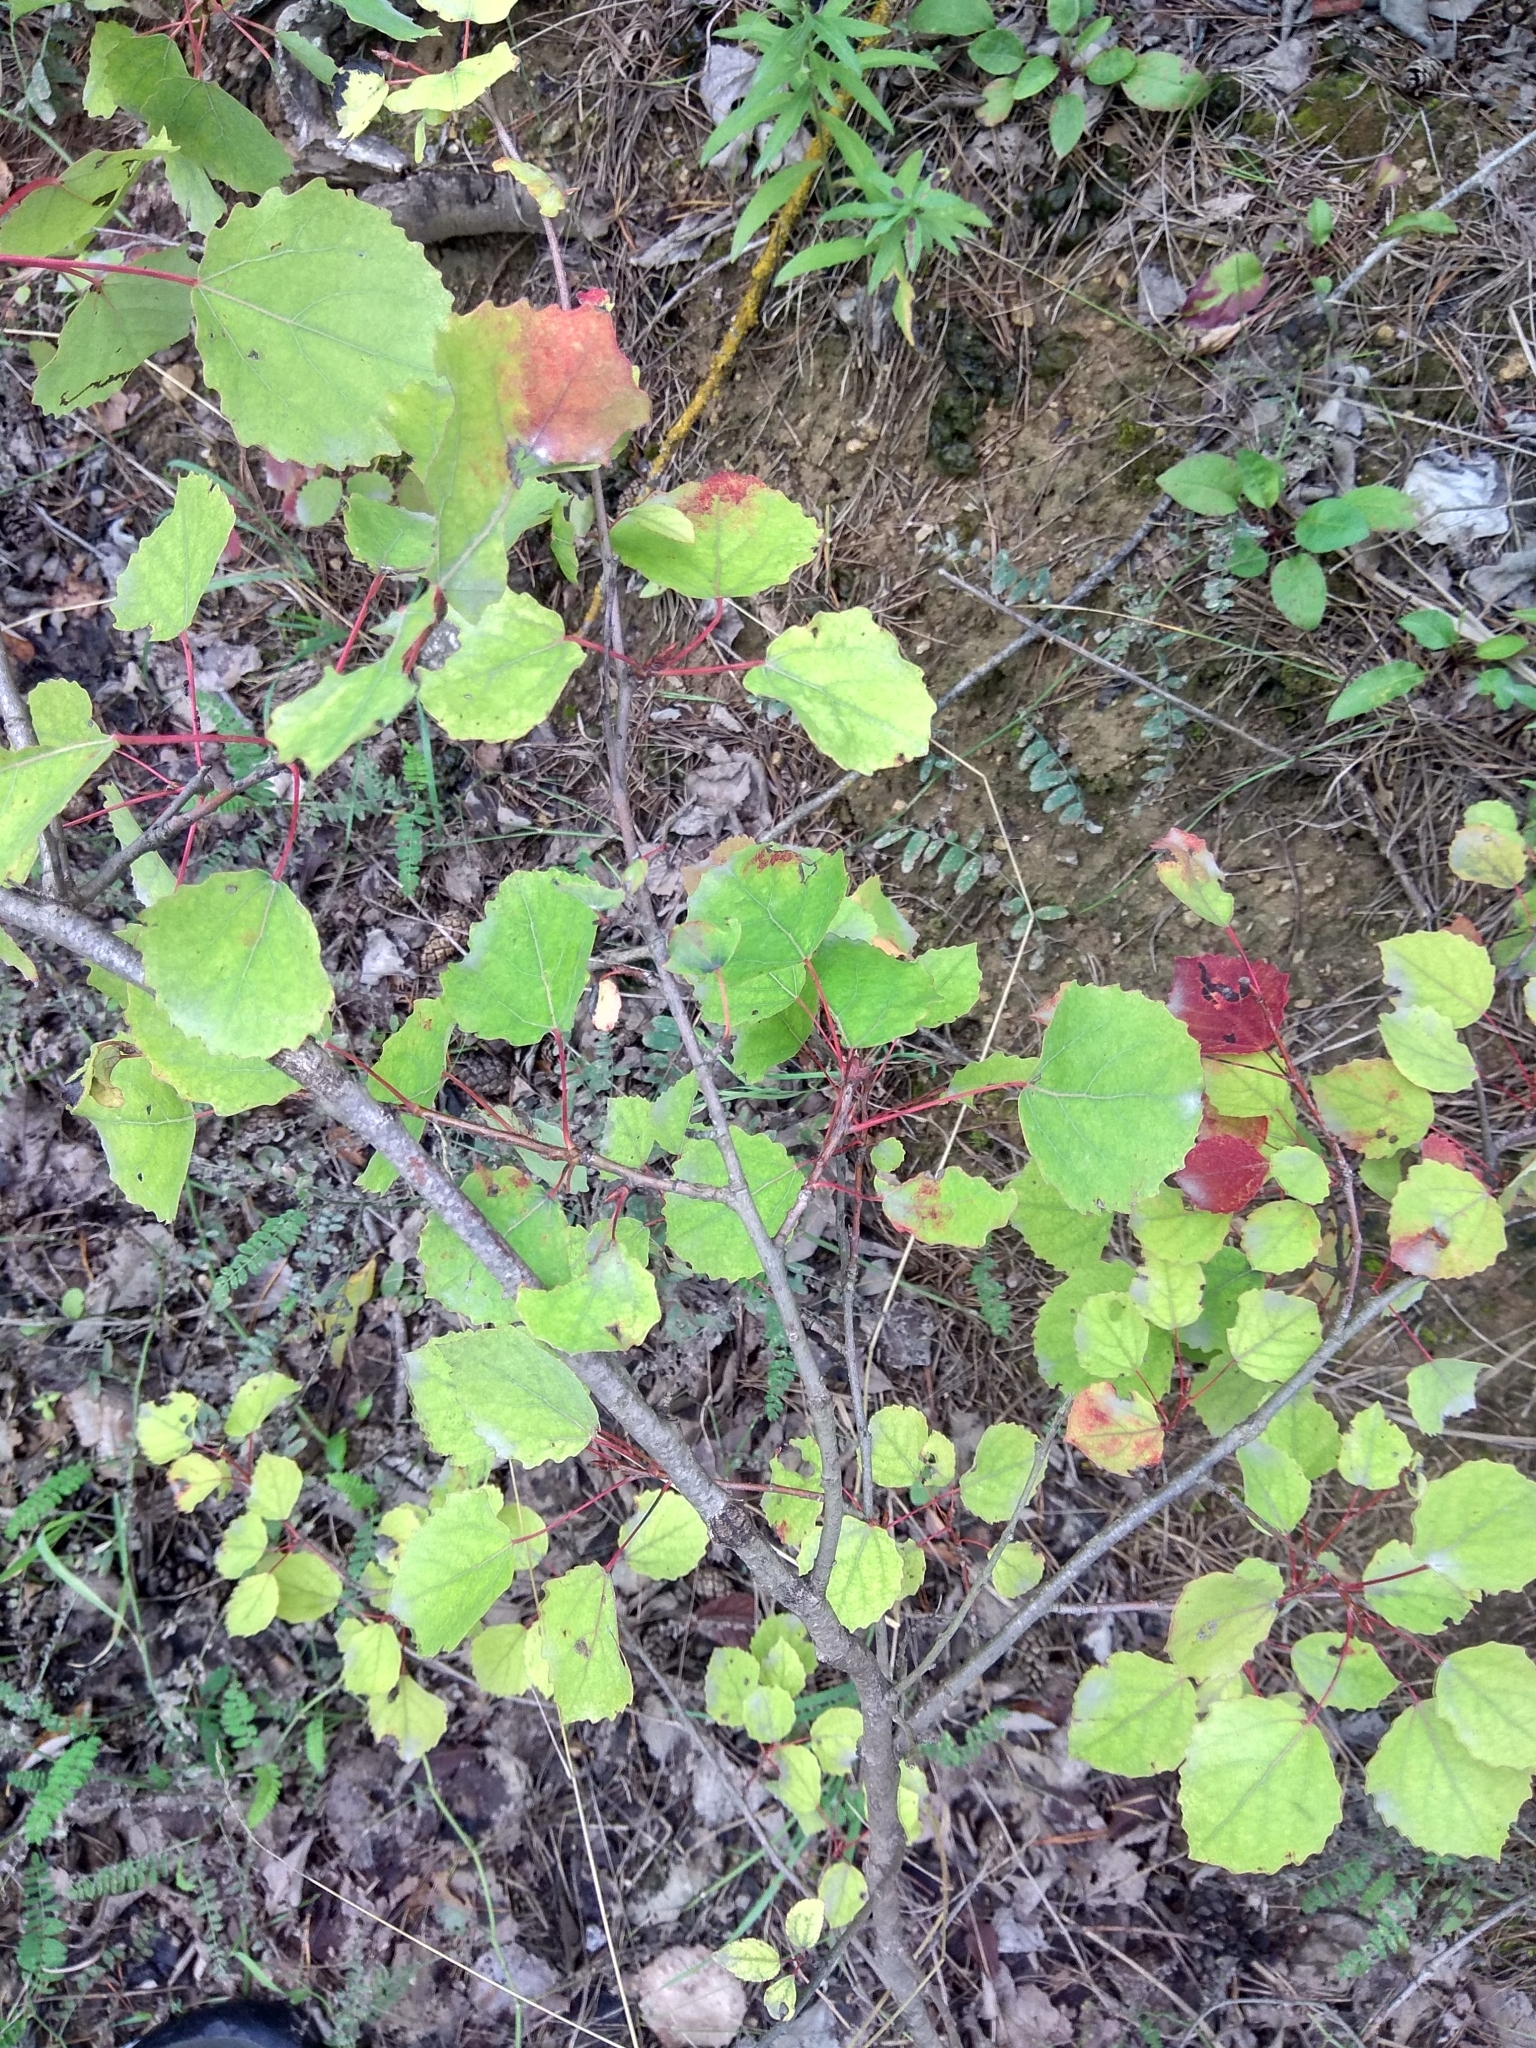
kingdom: Plantae
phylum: Tracheophyta
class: Magnoliopsida
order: Malpighiales
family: Salicaceae
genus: Populus
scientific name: Populus tremula
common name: European aspen
